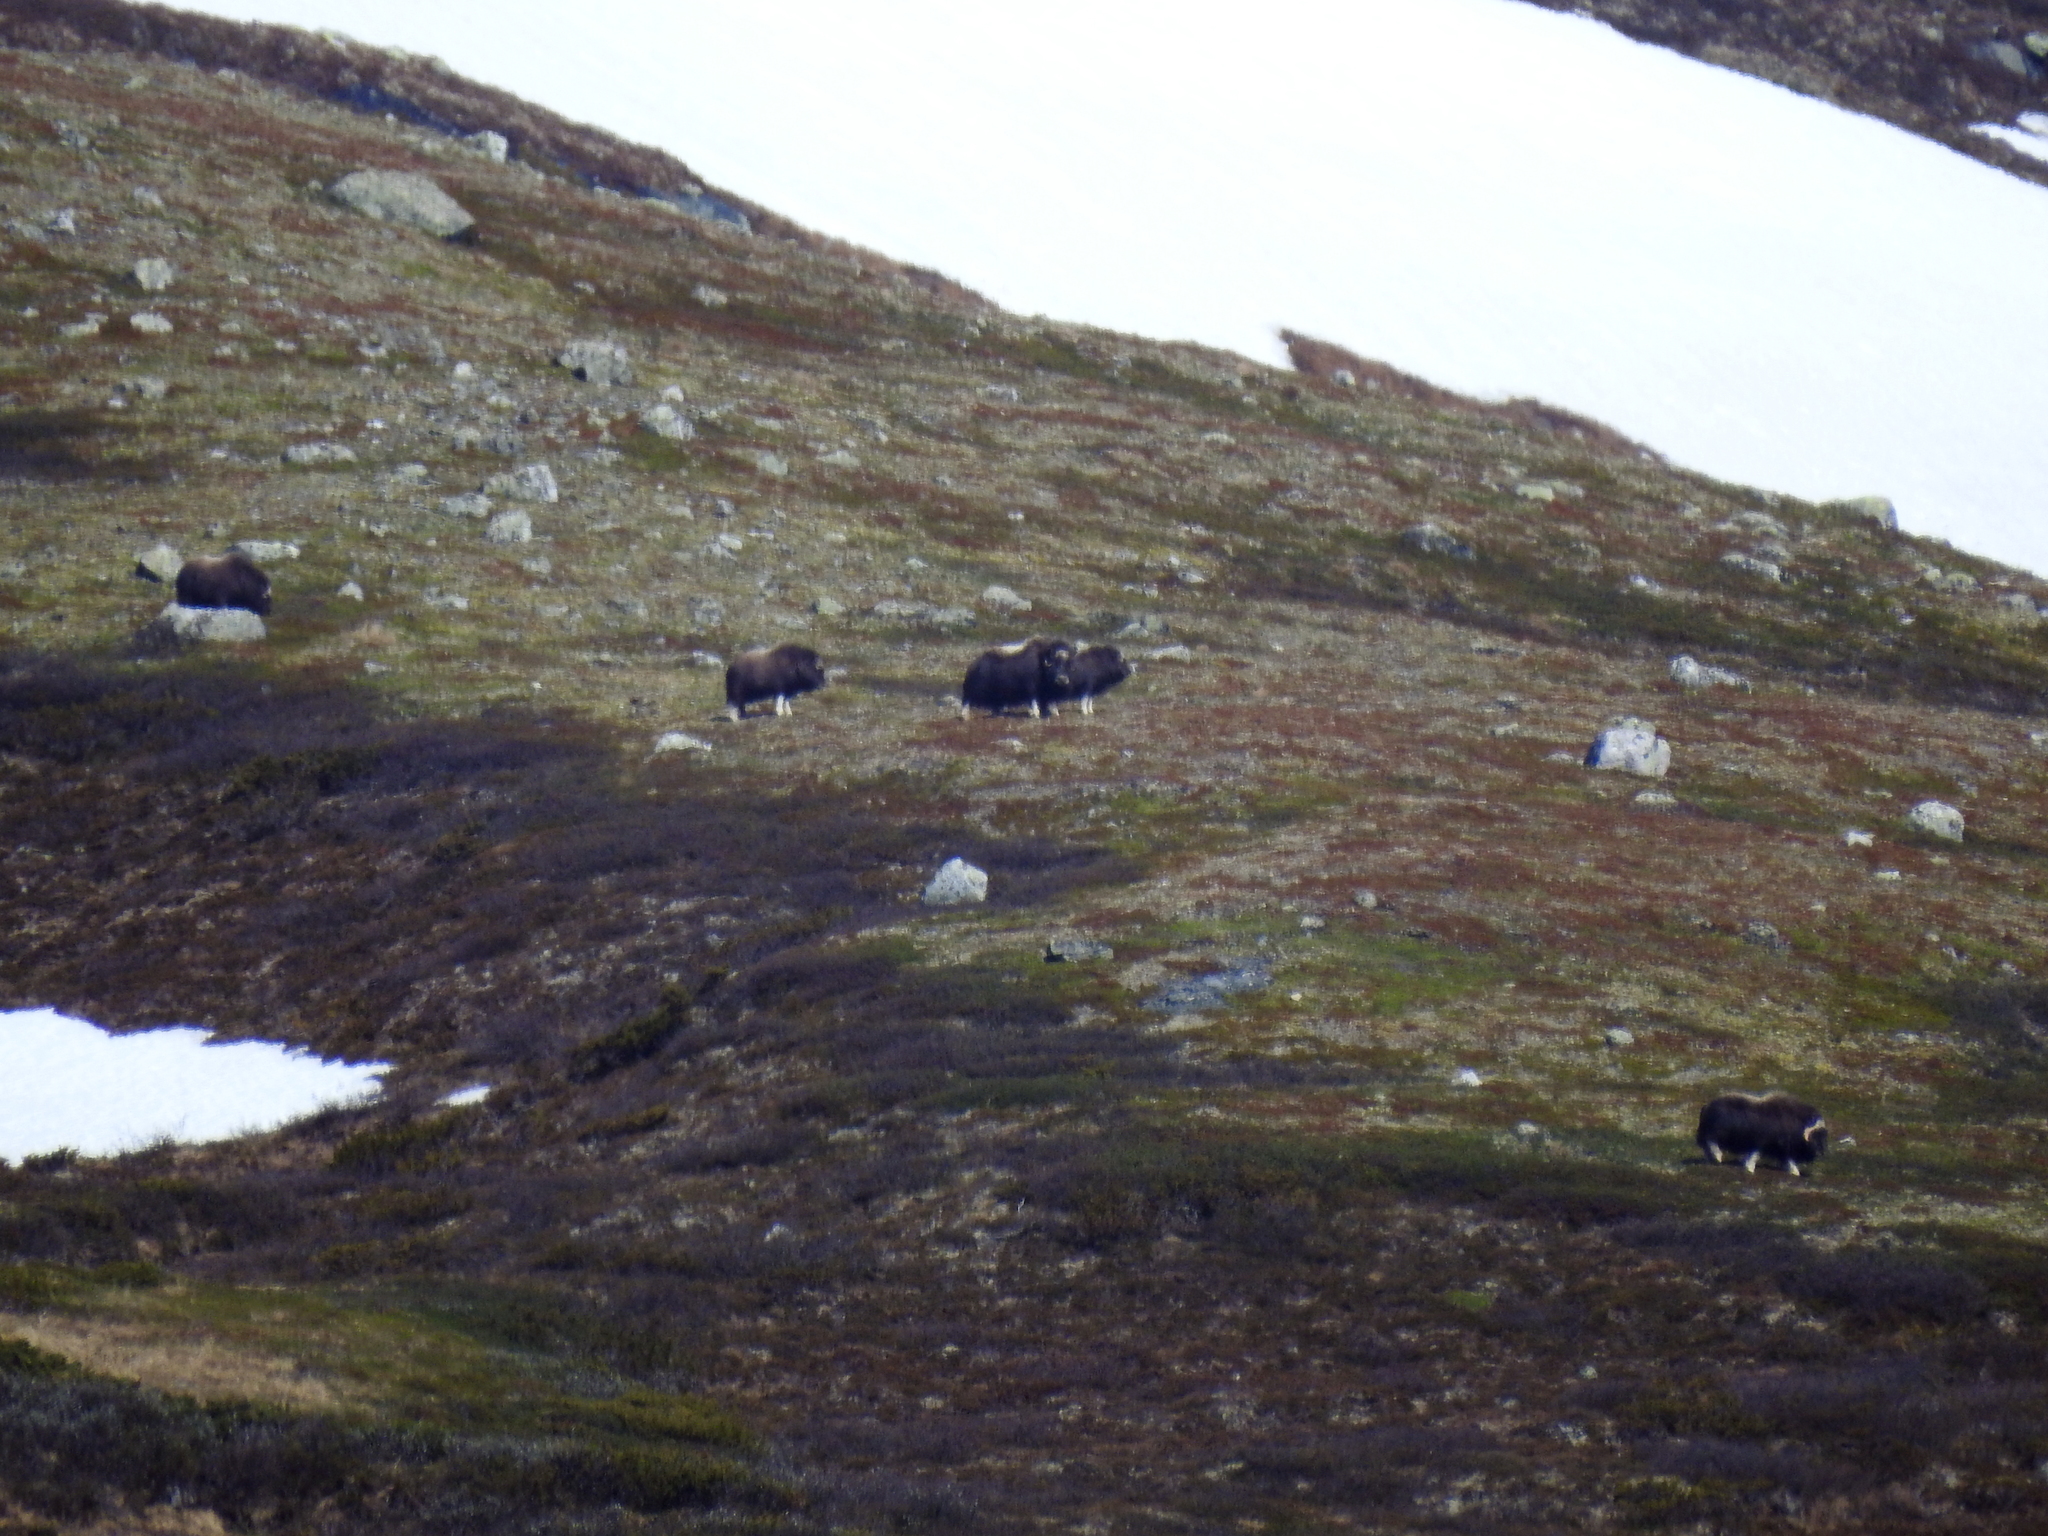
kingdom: Animalia
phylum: Chordata
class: Mammalia
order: Artiodactyla
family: Bovidae
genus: Ovibos
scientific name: Ovibos moschatus
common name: Muskox
